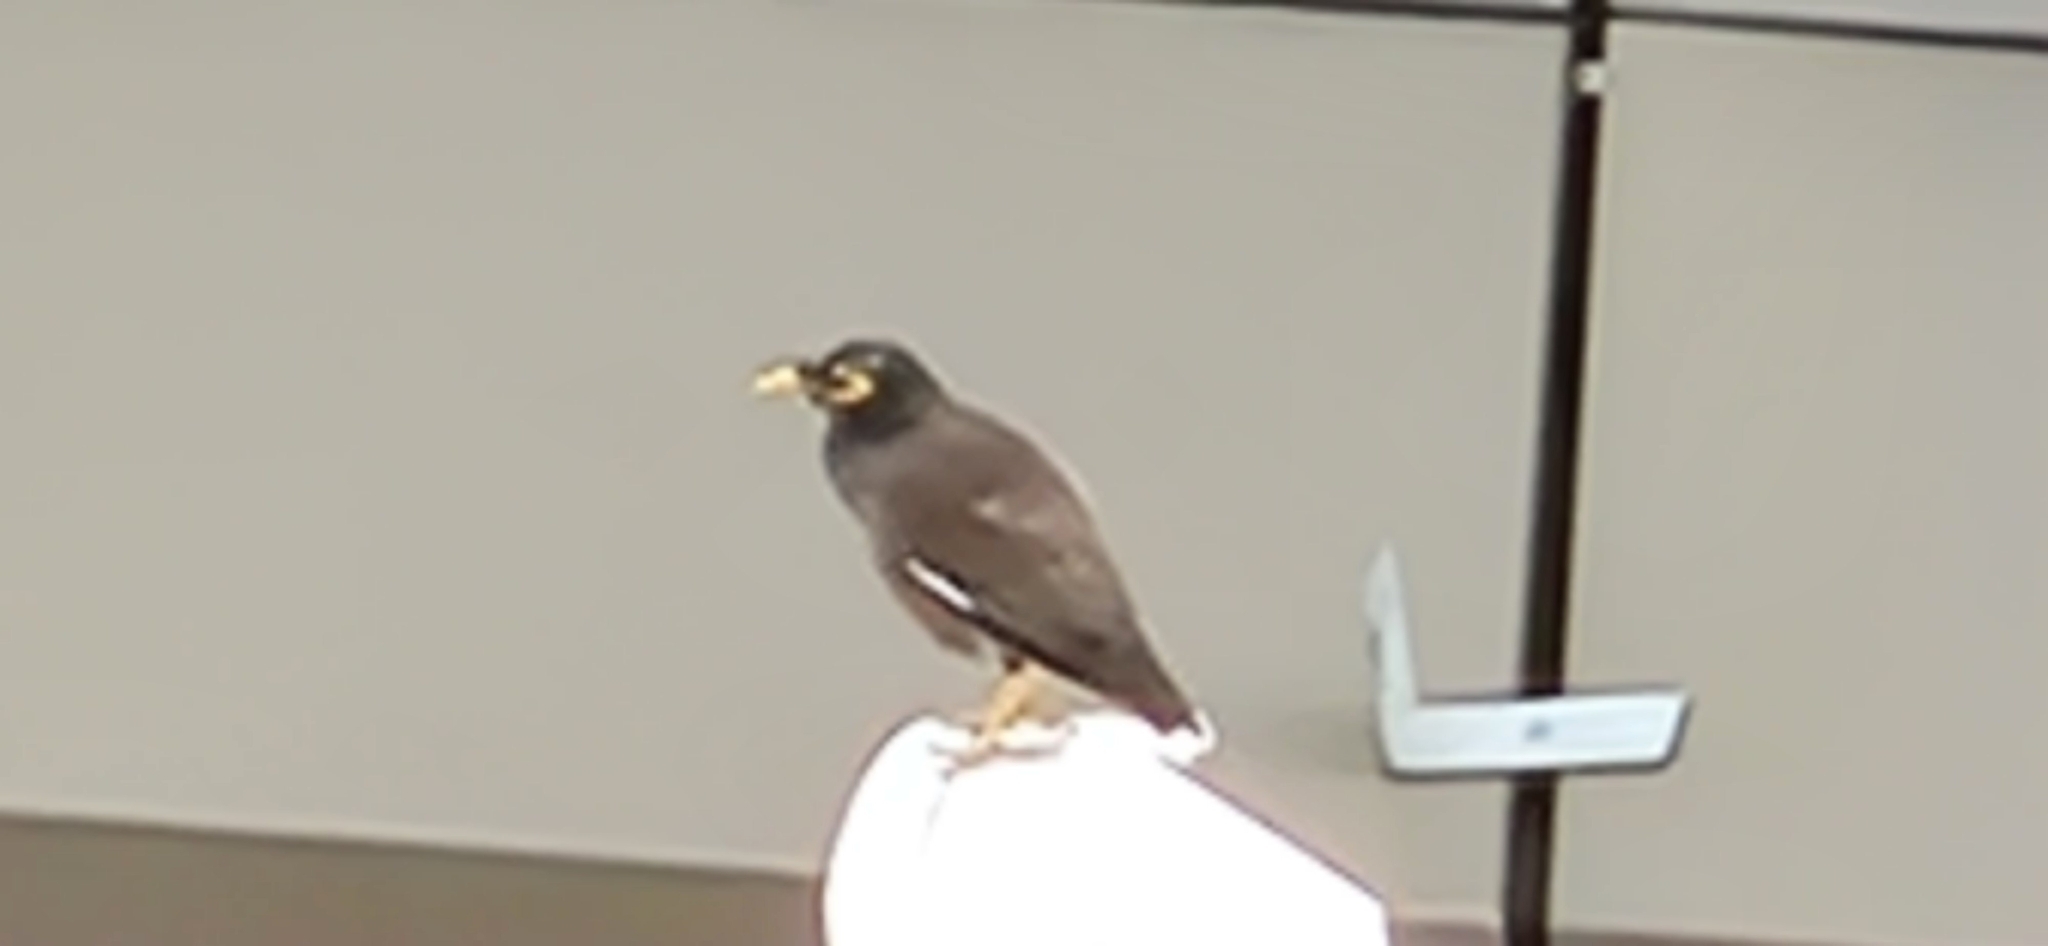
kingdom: Animalia
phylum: Chordata
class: Aves
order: Passeriformes
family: Sturnidae
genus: Acridotheres
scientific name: Acridotheres tristis
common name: Common myna
